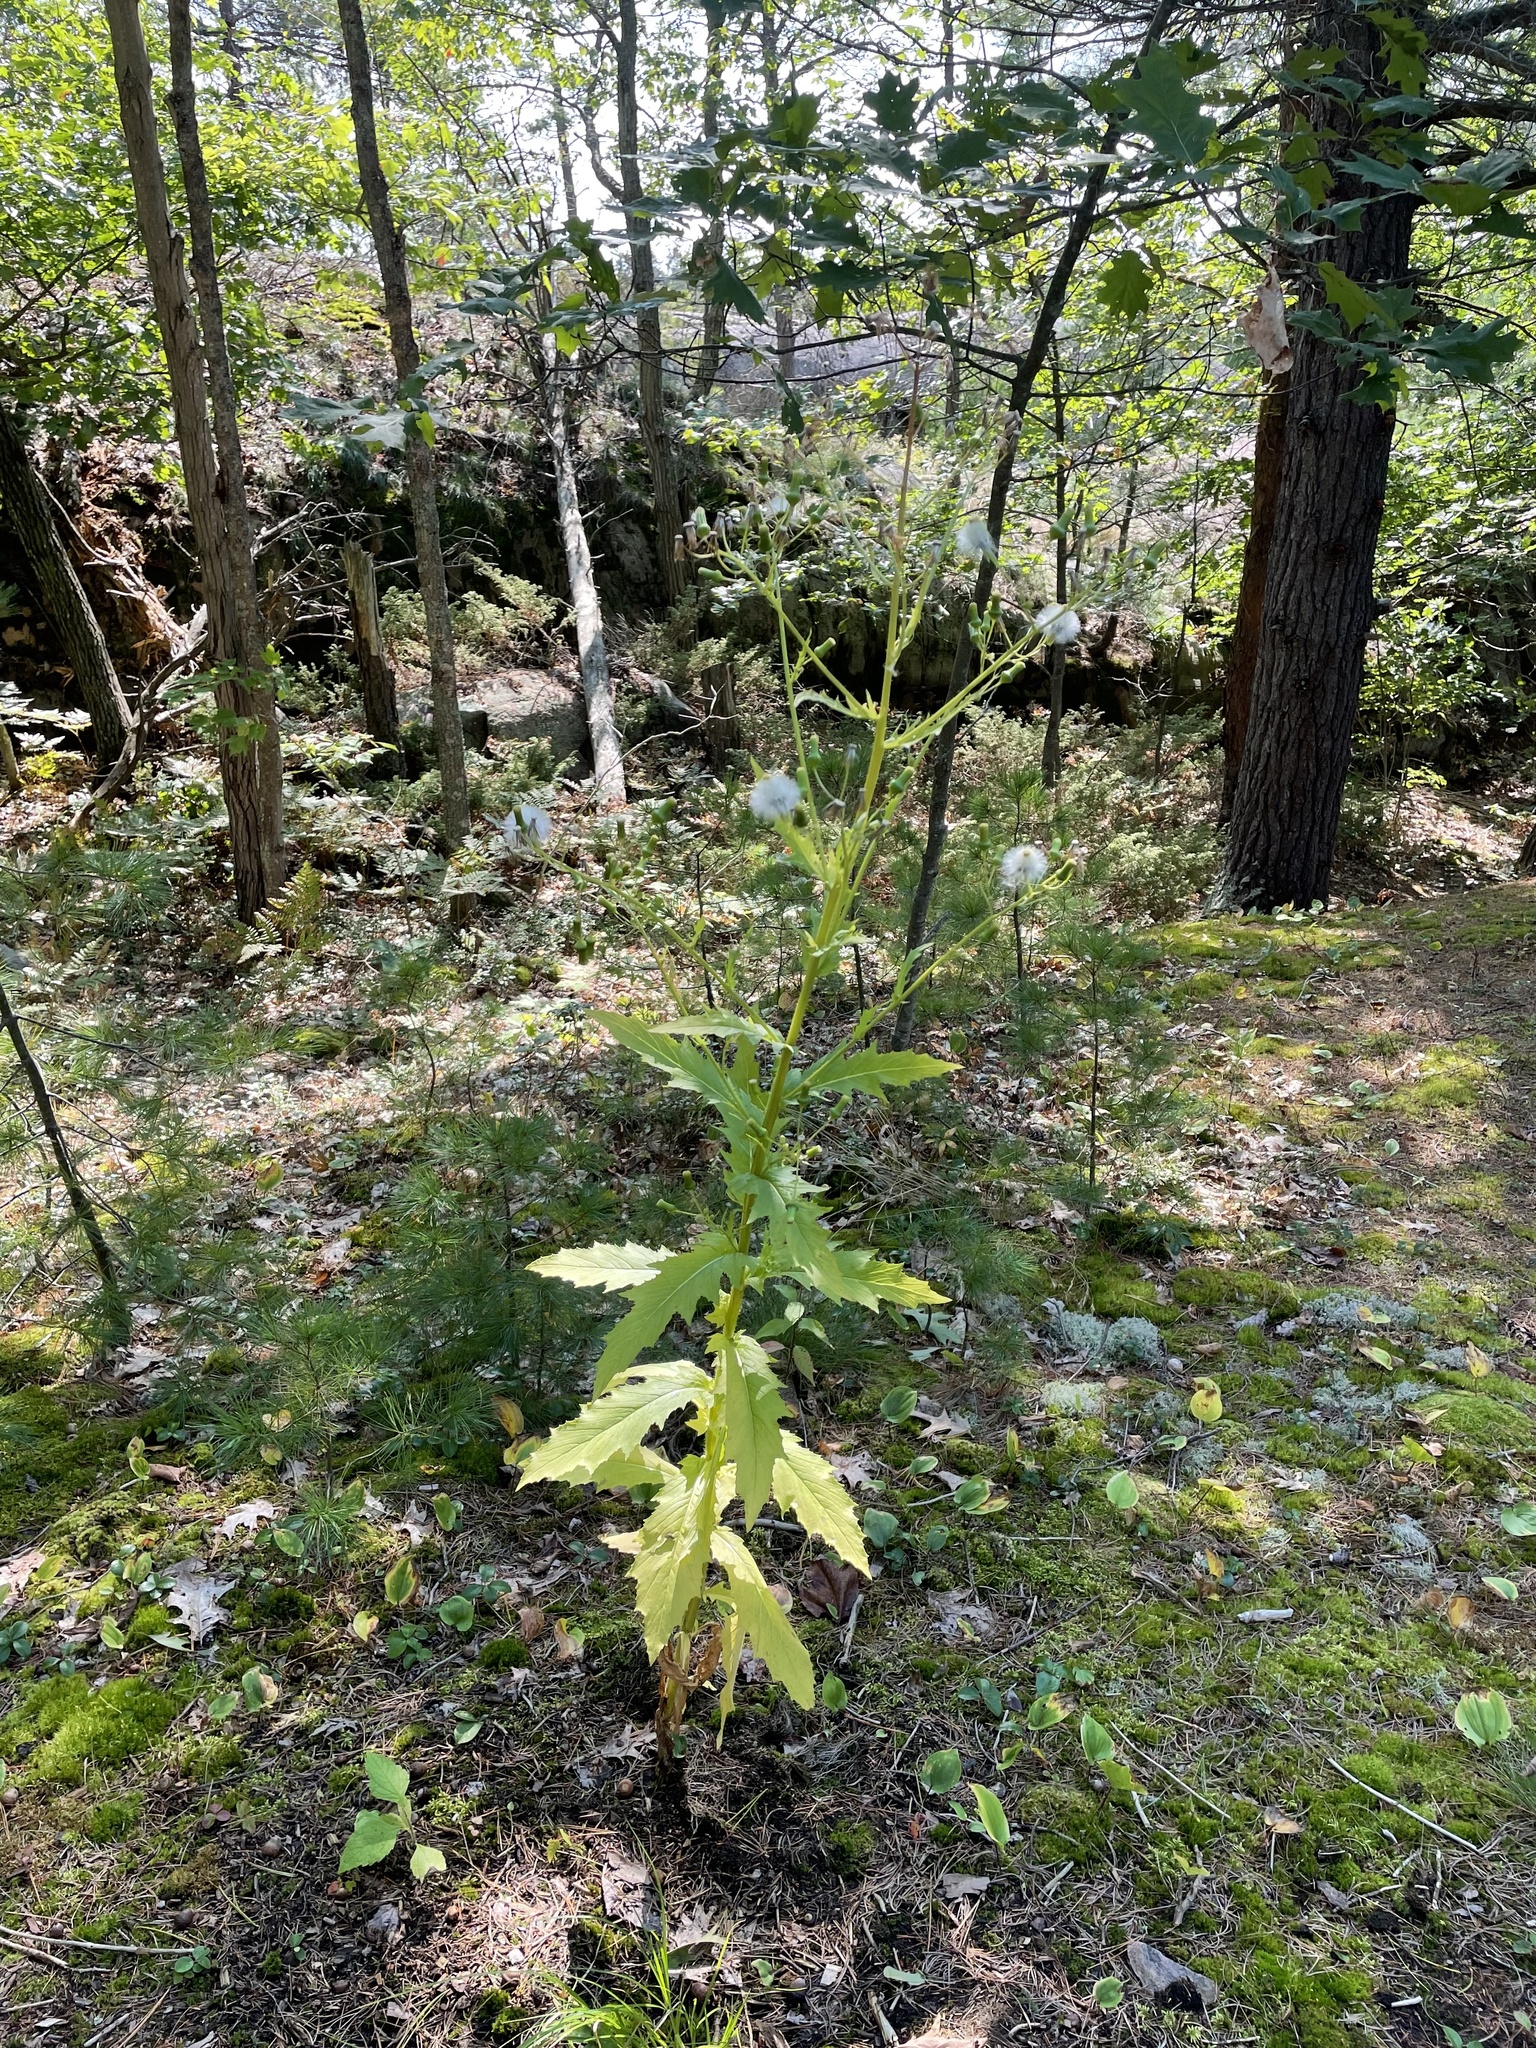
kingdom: Plantae
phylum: Tracheophyta
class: Magnoliopsida
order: Asterales
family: Asteraceae
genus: Erechtites
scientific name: Erechtites hieraciifolius
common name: American burnweed
